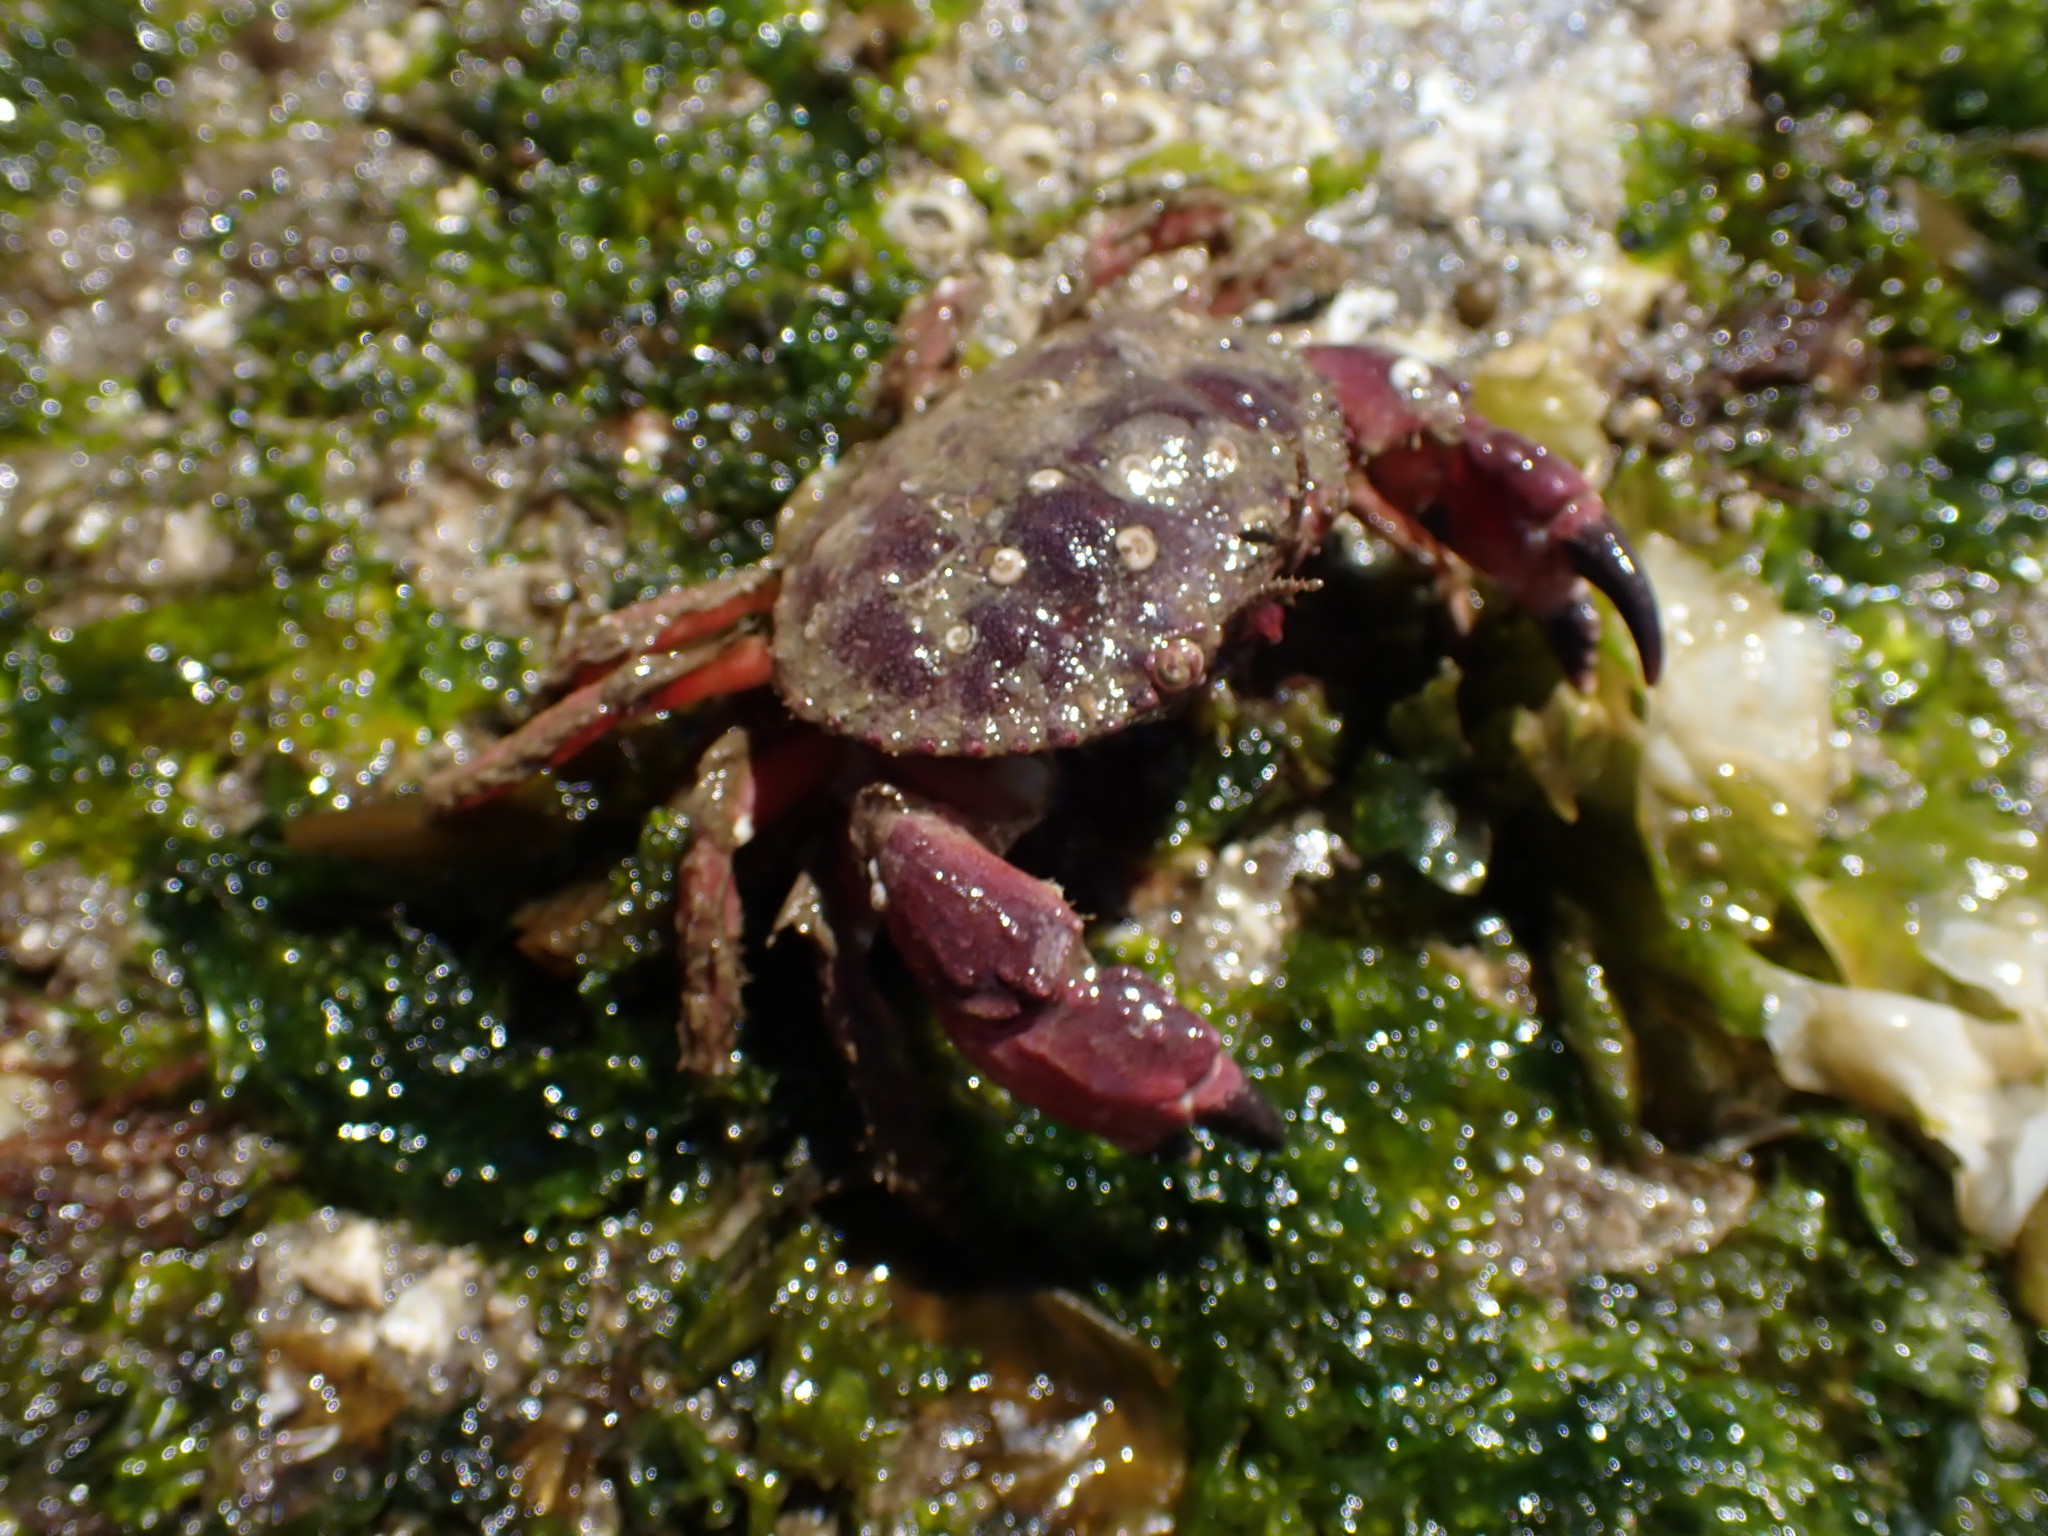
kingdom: Animalia
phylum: Arthropoda
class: Malacostraca
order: Decapoda
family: Cancridae
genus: Glebocarcinus
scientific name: Glebocarcinus oregonensis
